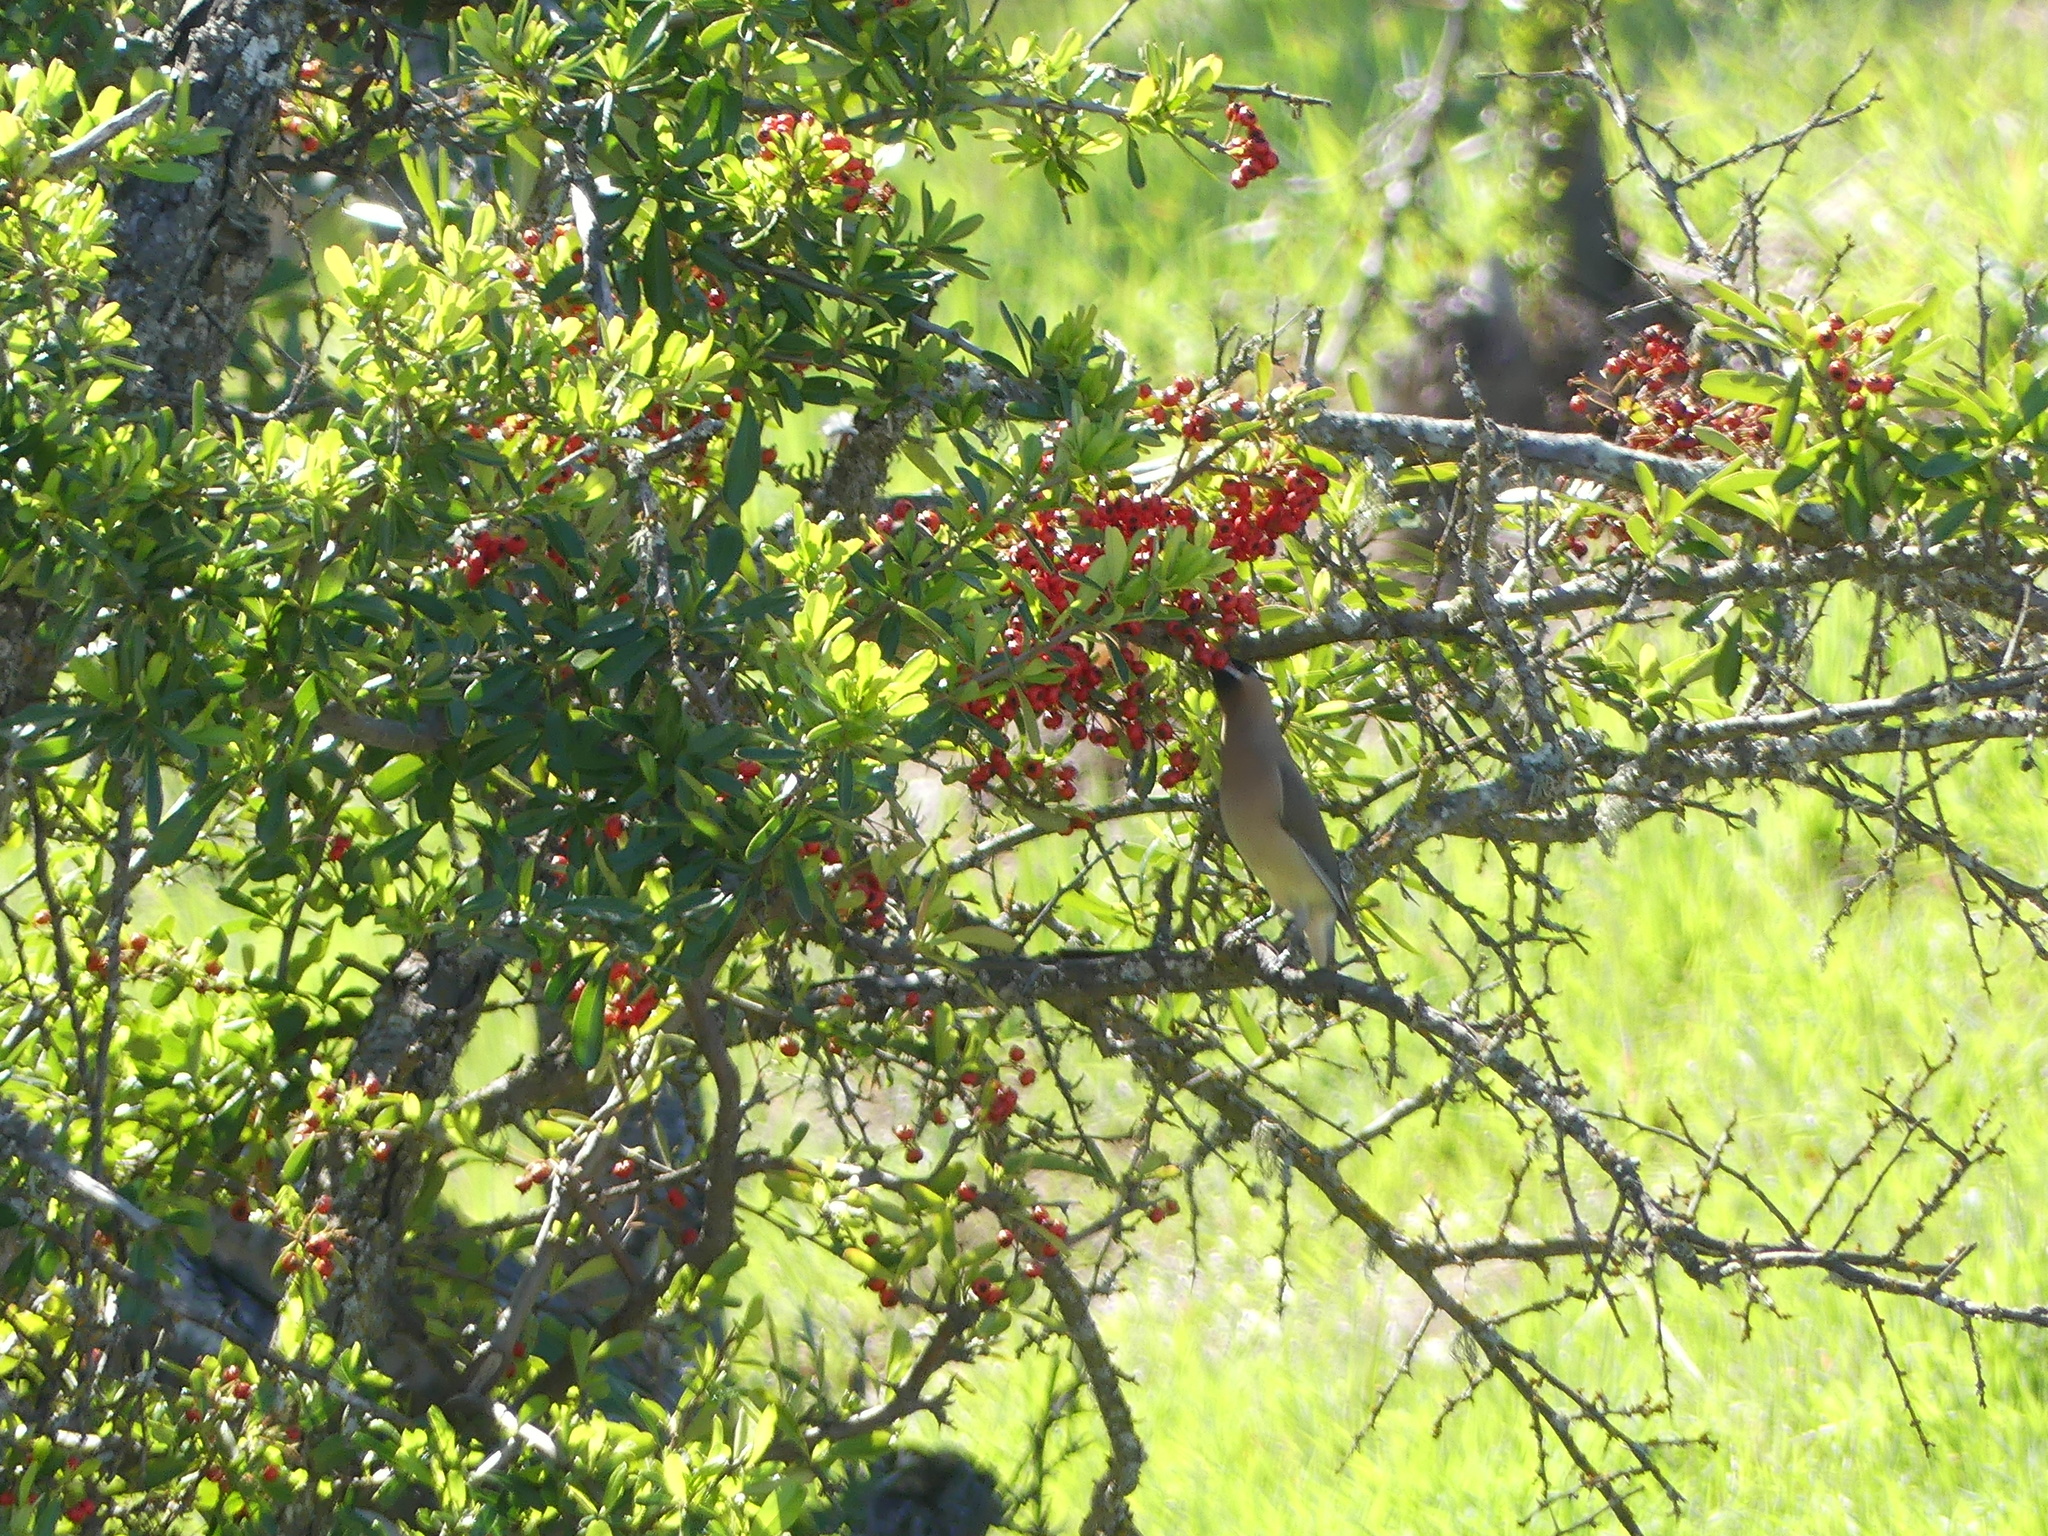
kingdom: Animalia
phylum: Chordata
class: Aves
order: Passeriformes
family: Bombycillidae
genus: Bombycilla
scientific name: Bombycilla cedrorum
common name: Cedar waxwing
